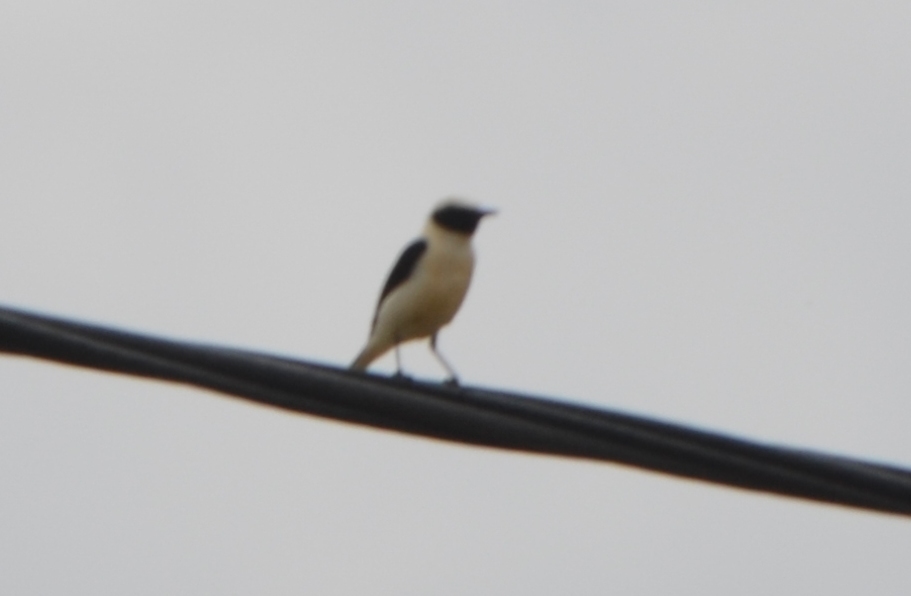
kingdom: Animalia
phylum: Chordata
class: Aves
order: Passeriformes
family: Muscicapidae
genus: Oenanthe
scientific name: Oenanthe hispanica
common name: Black-eared wheatear
